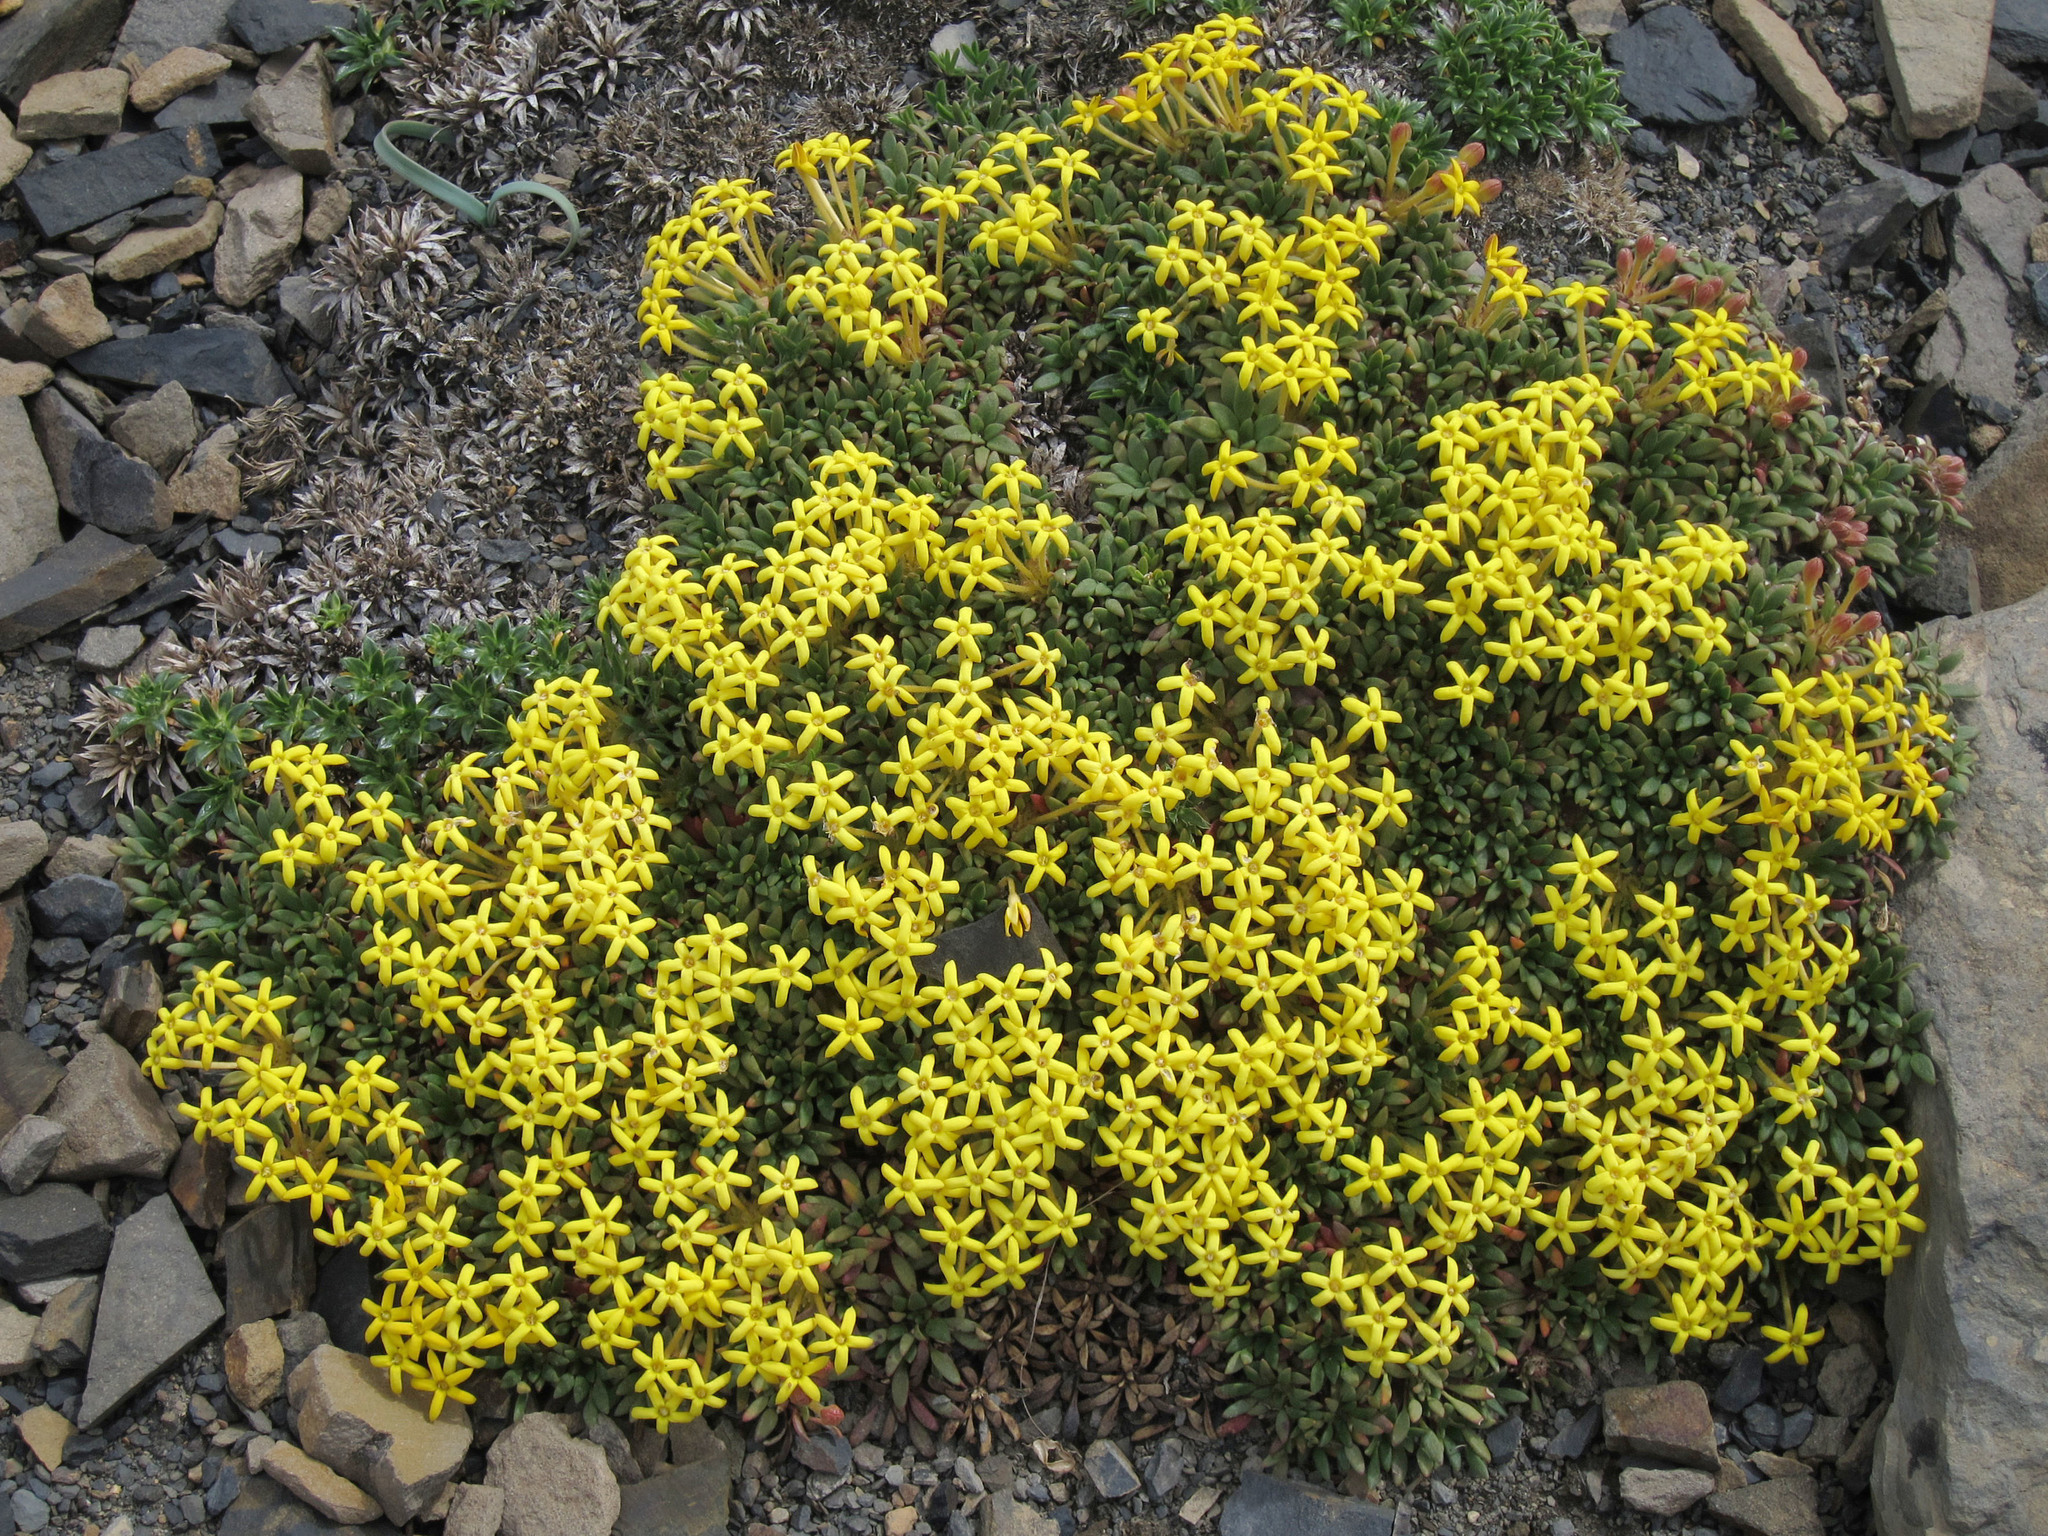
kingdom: Plantae
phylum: Tracheophyta
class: Magnoliopsida
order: Gentianales
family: Rubiaceae
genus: Oreopolus
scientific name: Oreopolus glacialis
